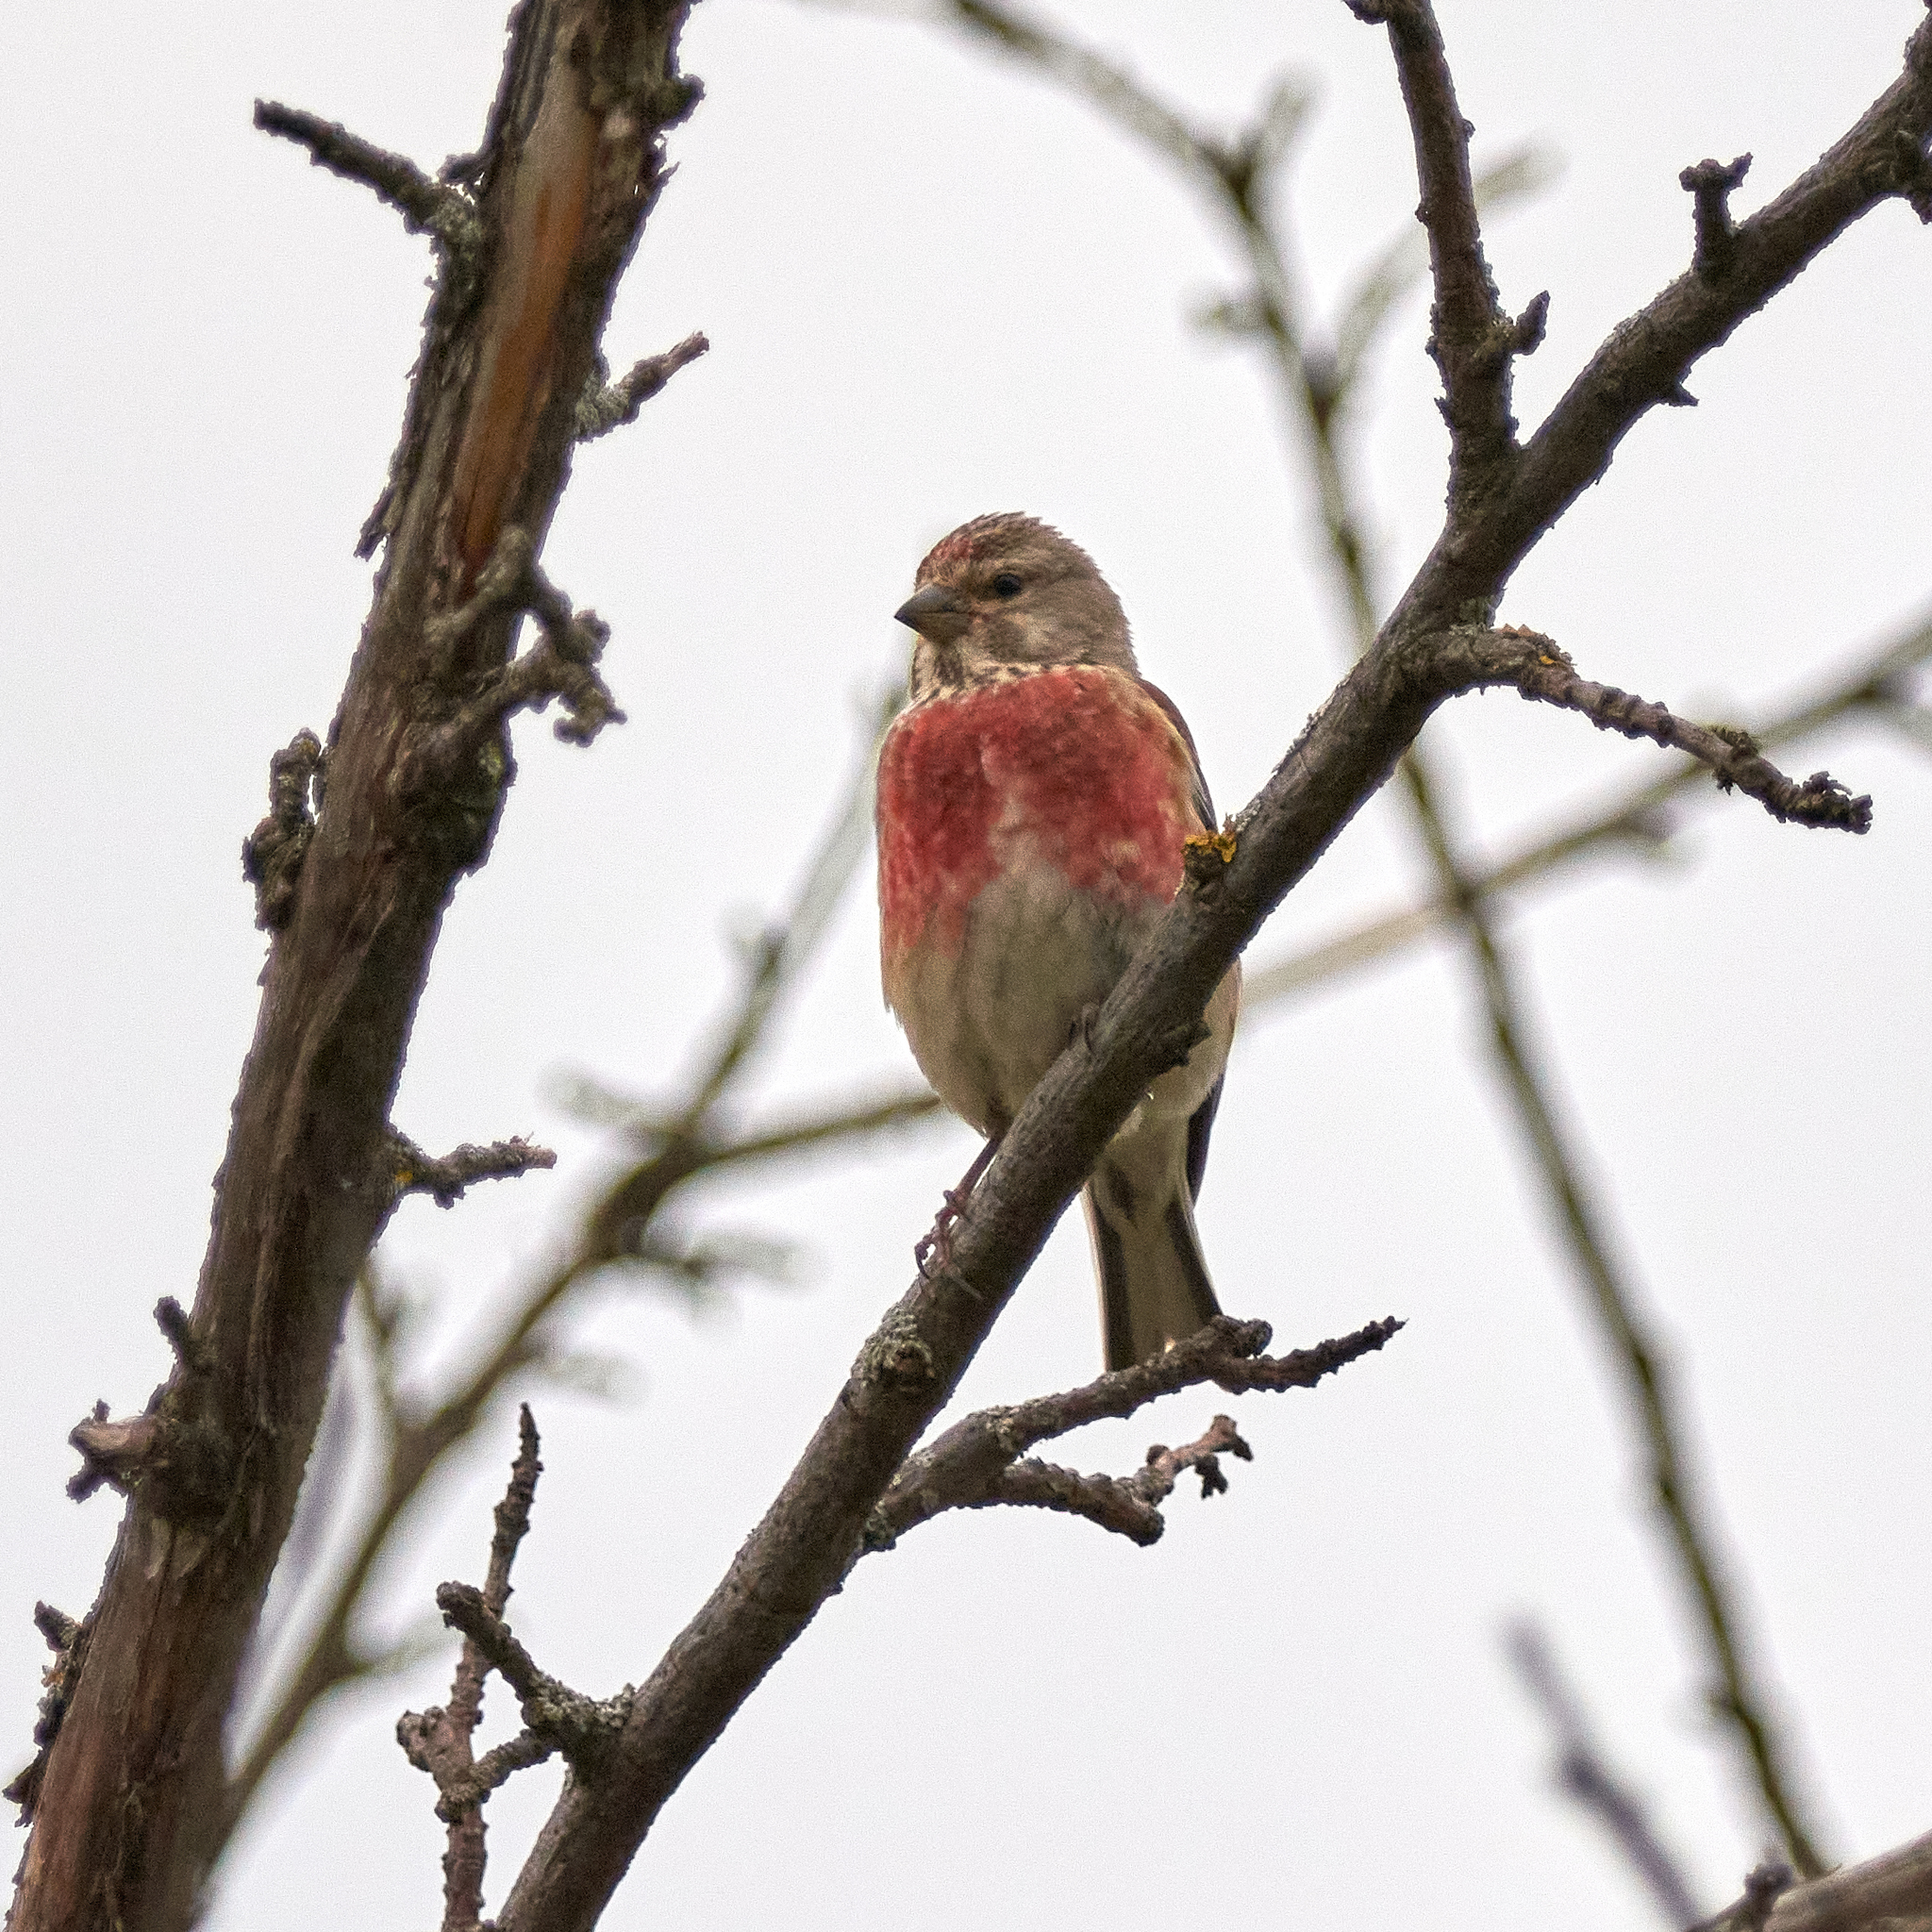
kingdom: Animalia
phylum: Chordata
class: Aves
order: Passeriformes
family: Fringillidae
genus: Linaria
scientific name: Linaria cannabina
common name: Common linnet
